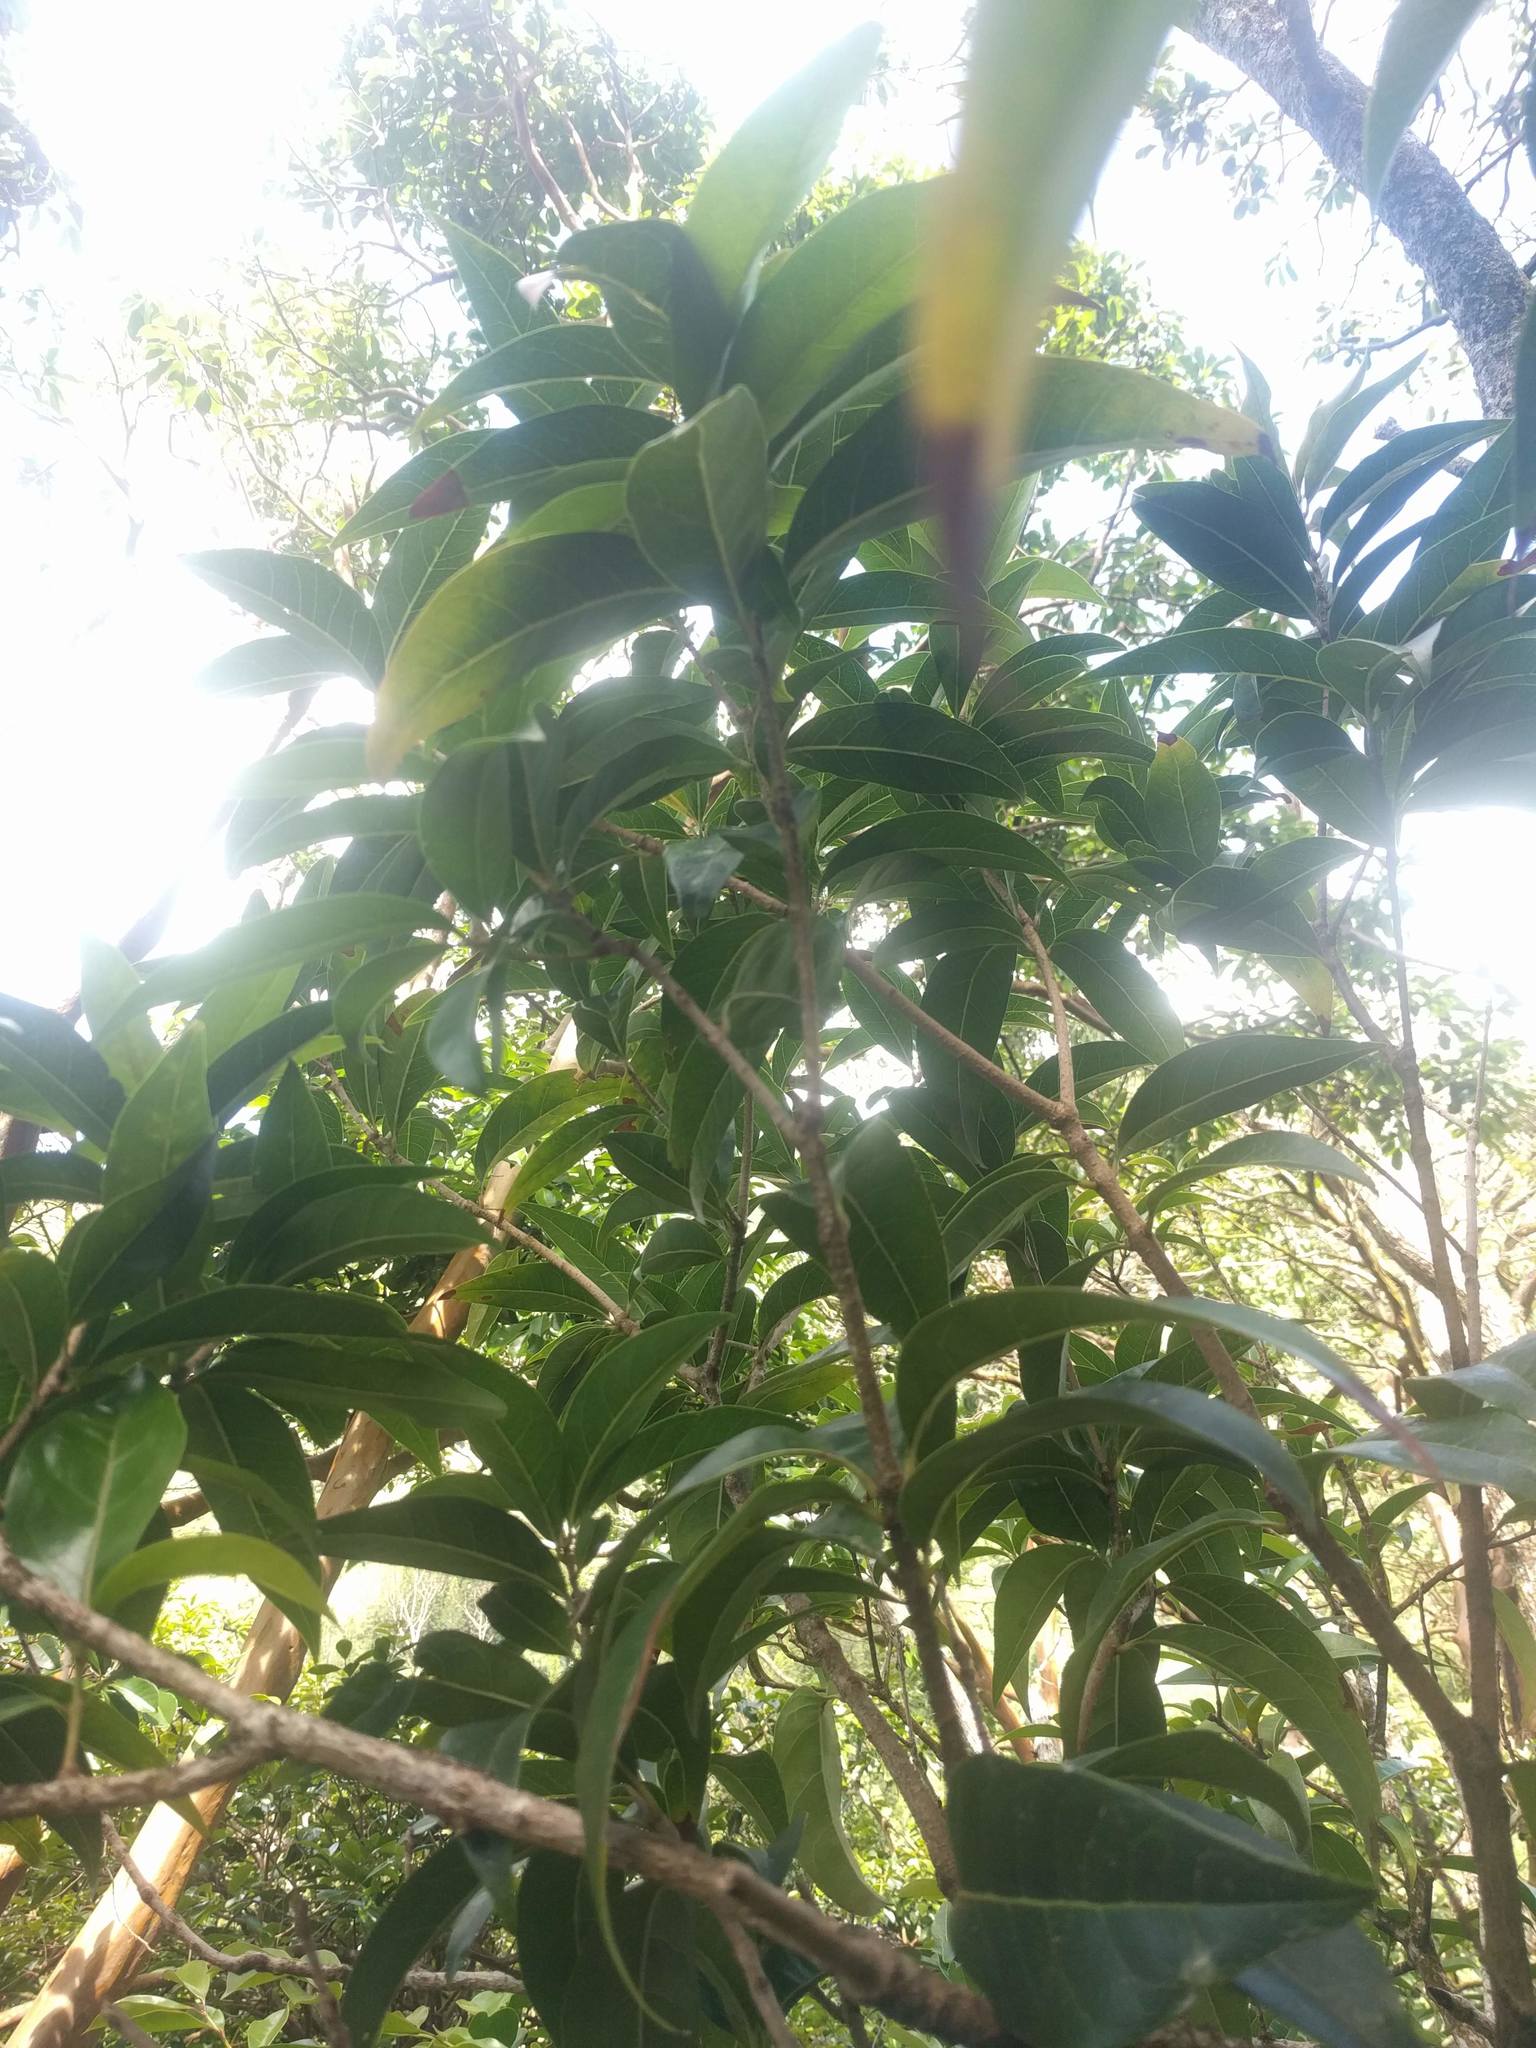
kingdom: Plantae
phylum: Tracheophyta
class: Magnoliopsida
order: Lamiales
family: Oleaceae
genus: Nestegis
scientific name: Nestegis sandwicensis
